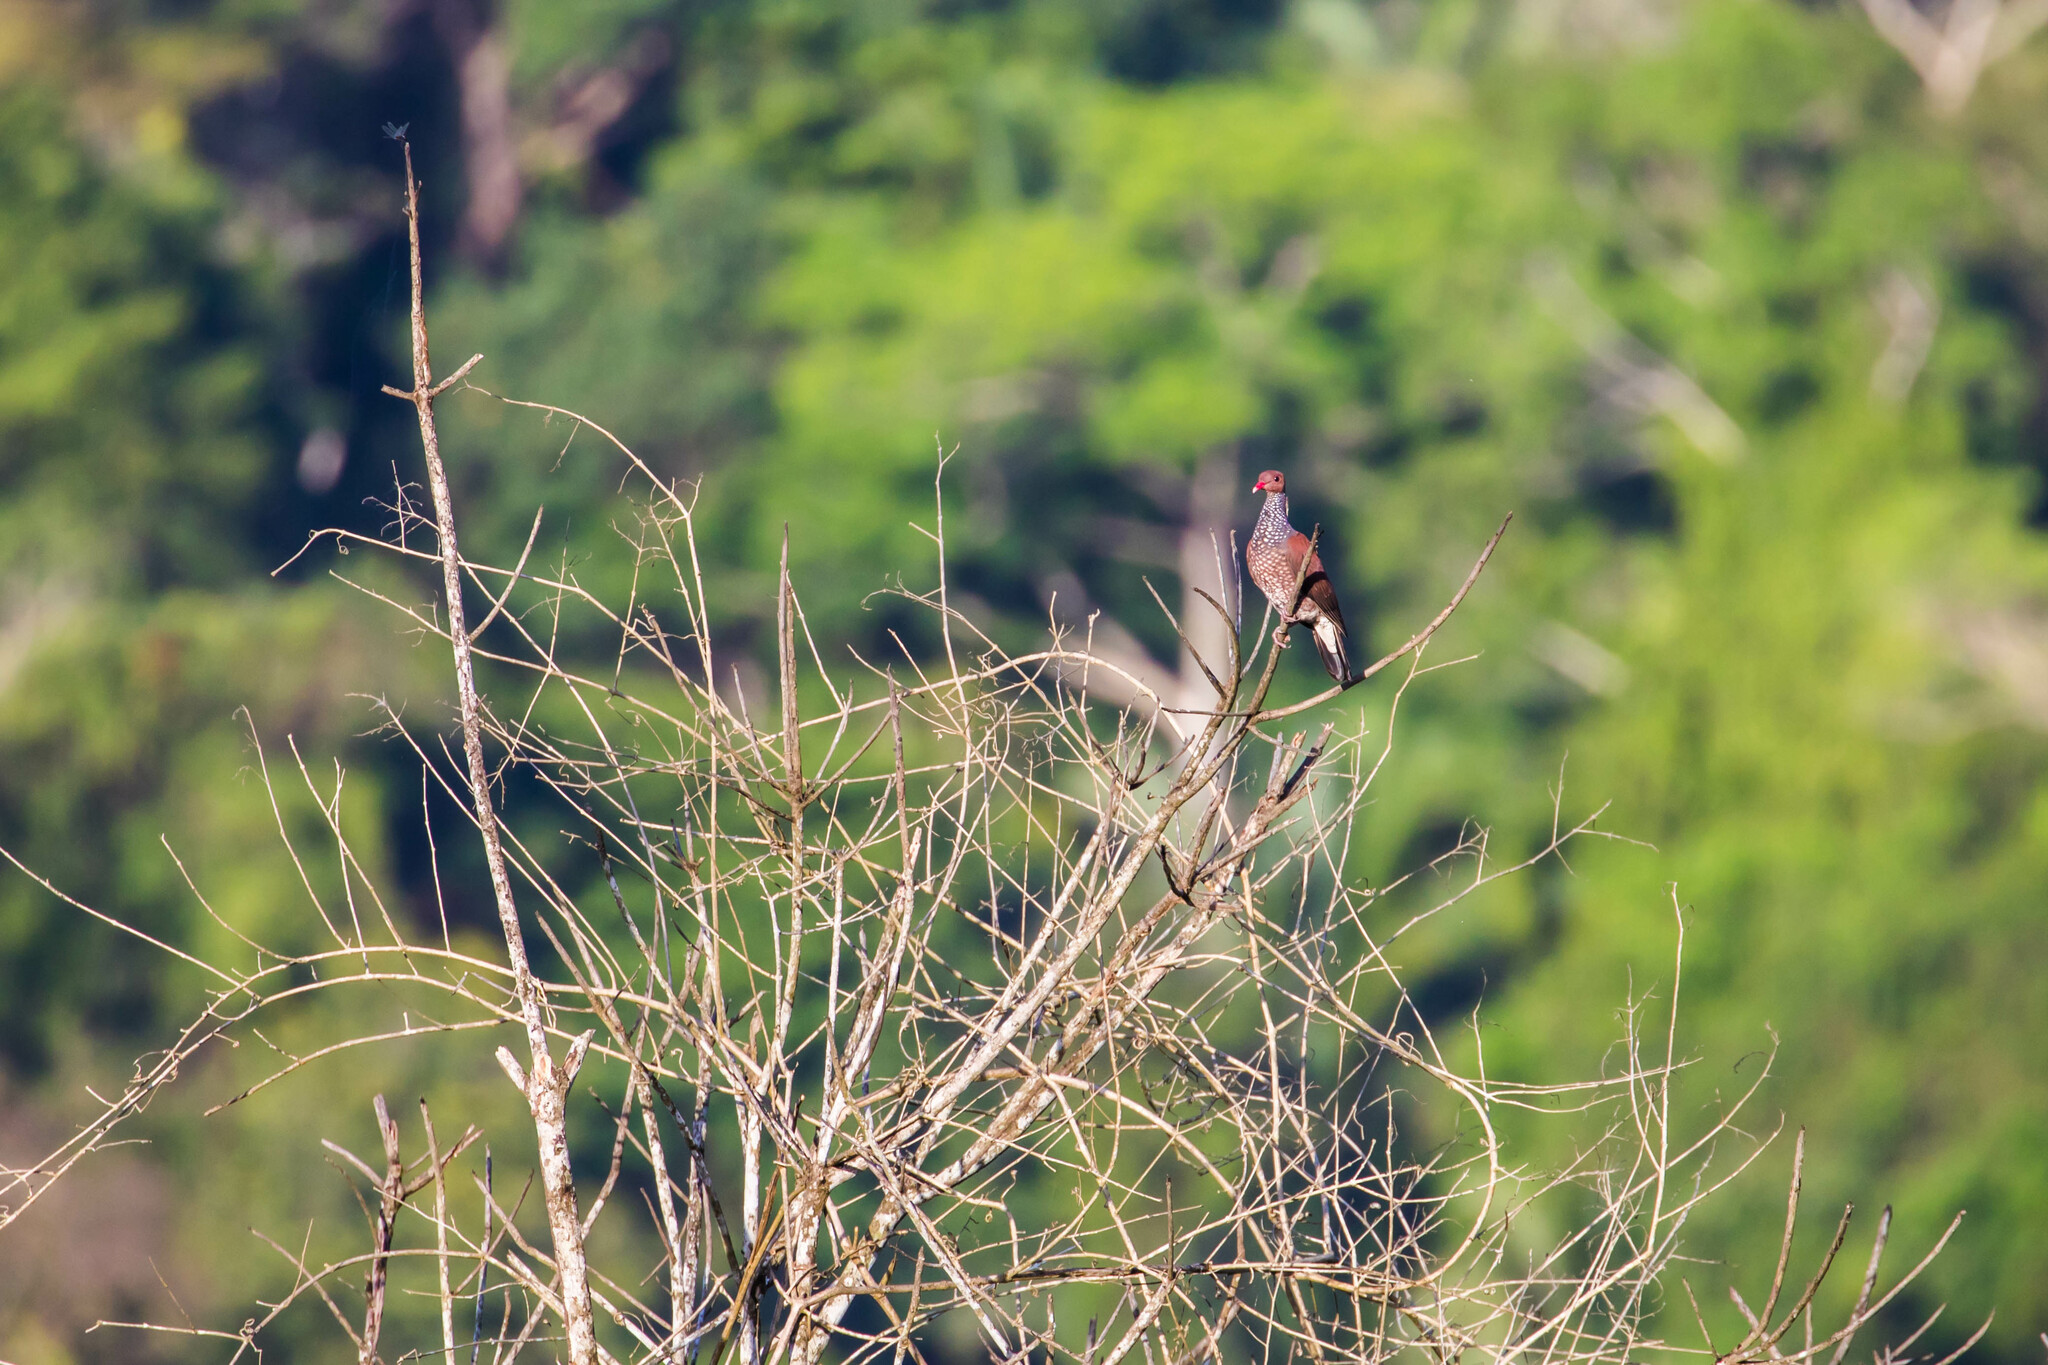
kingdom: Animalia
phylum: Chordata
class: Aves
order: Columbiformes
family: Columbidae
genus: Patagioenas
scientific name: Patagioenas speciosa
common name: Scaled pigeon
